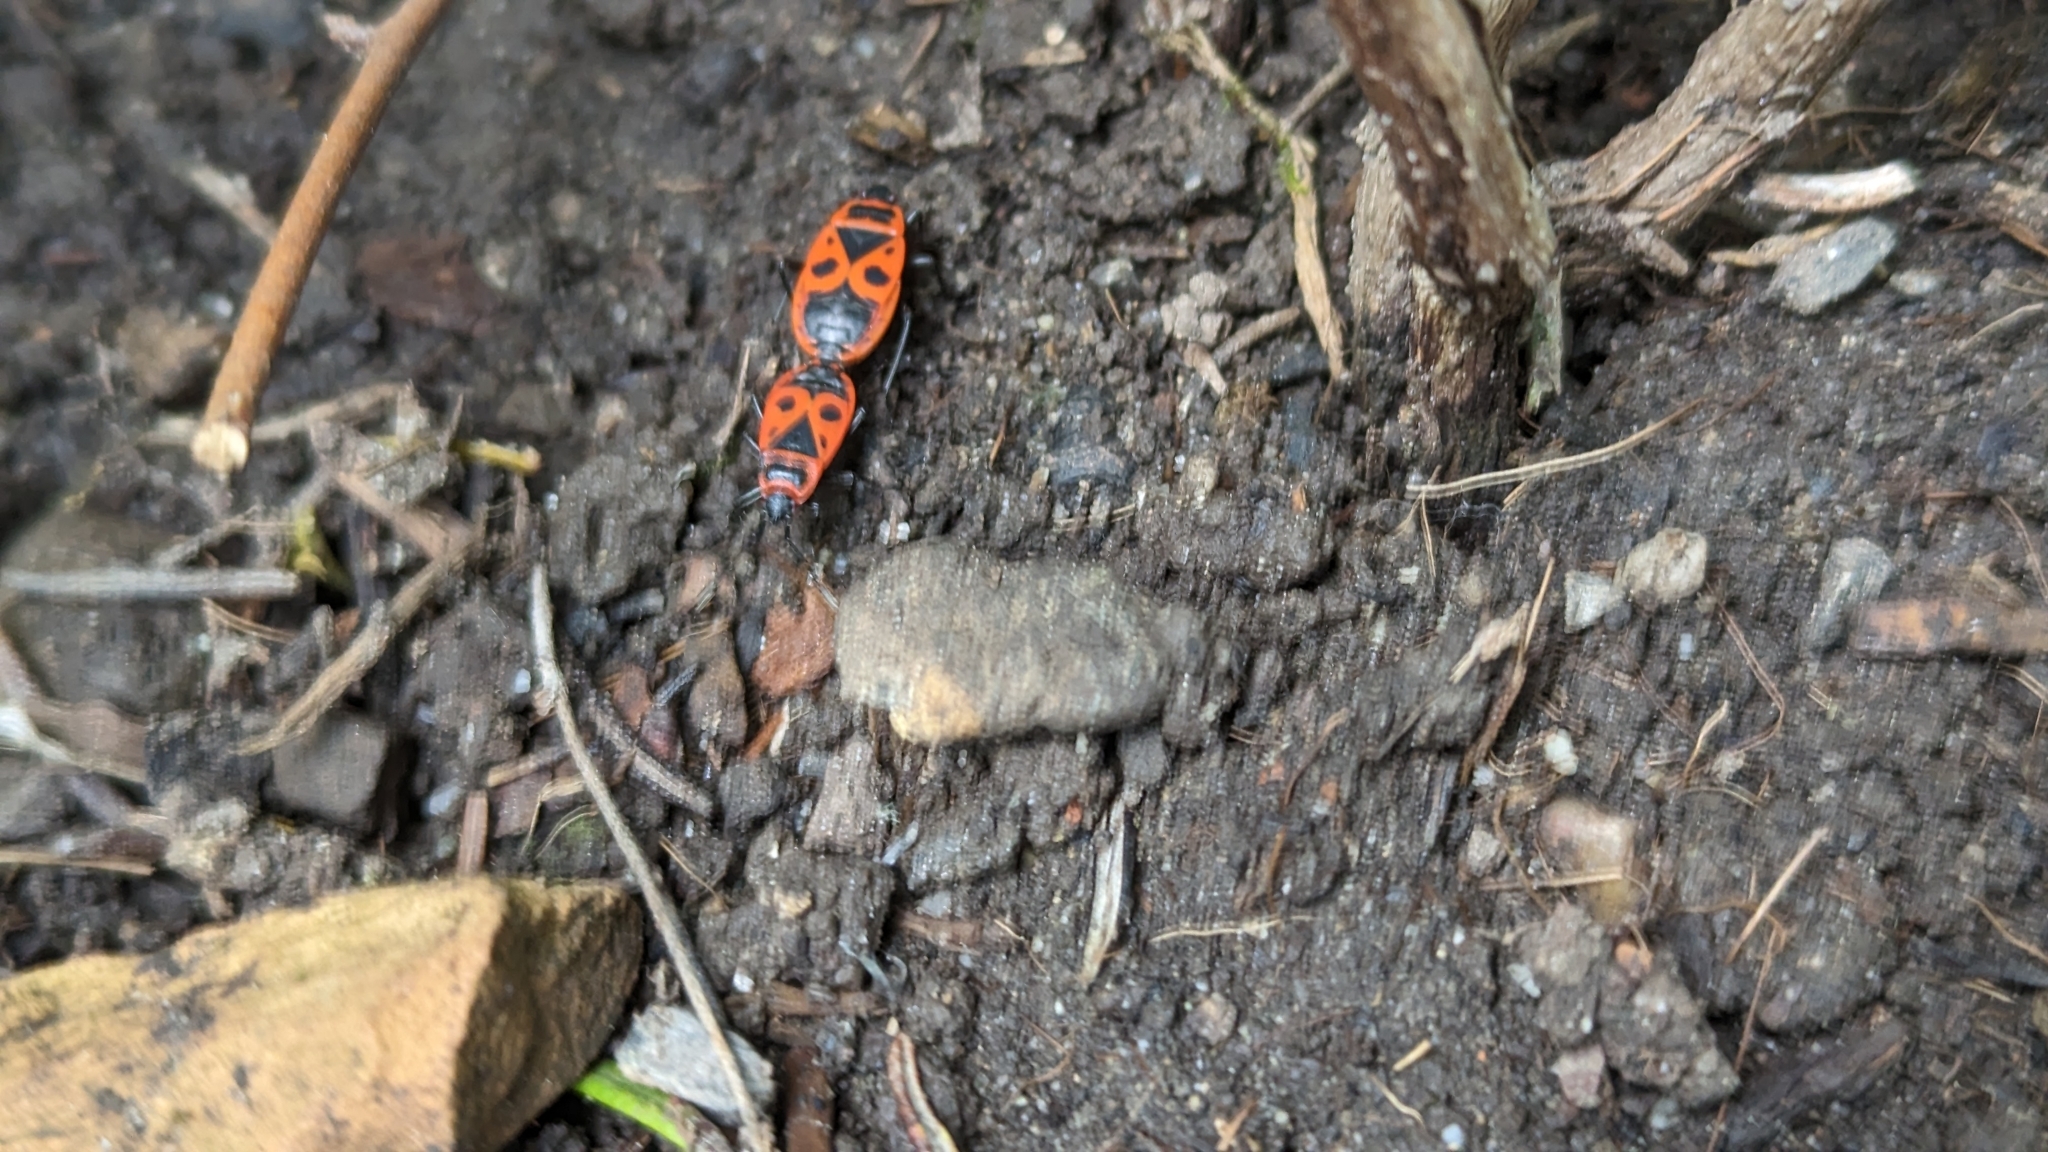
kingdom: Animalia
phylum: Arthropoda
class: Insecta
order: Hemiptera
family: Pyrrhocoridae
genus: Pyrrhocoris
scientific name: Pyrrhocoris apterus
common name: Firebug
